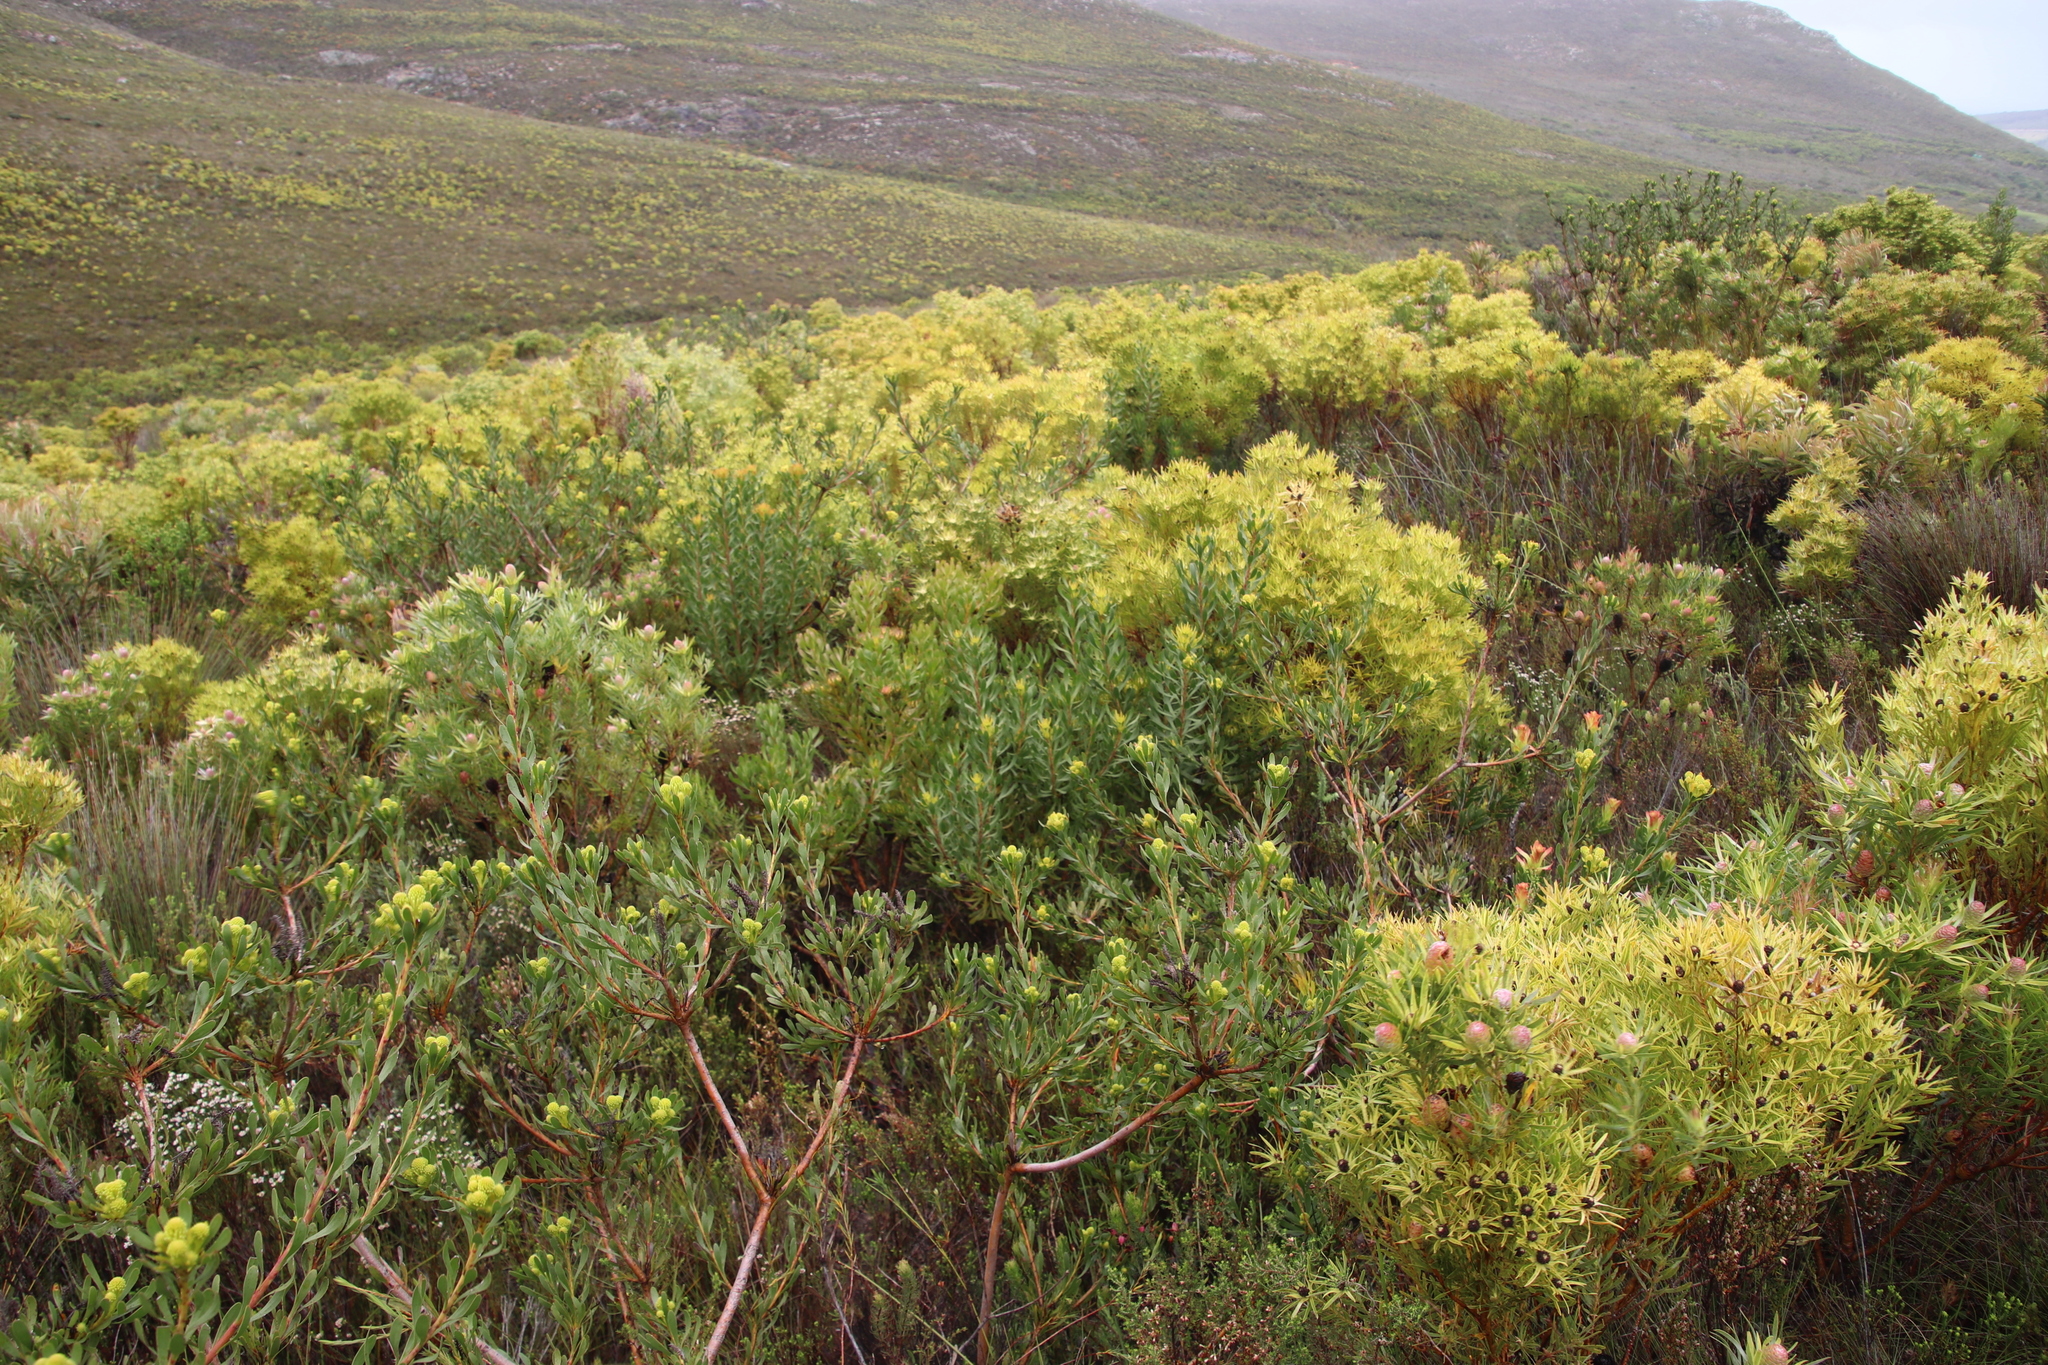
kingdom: Plantae
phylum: Tracheophyta
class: Magnoliopsida
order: Proteales
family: Proteaceae
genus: Aulax
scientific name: Aulax umbellata
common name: Broad-leaf featherbush
